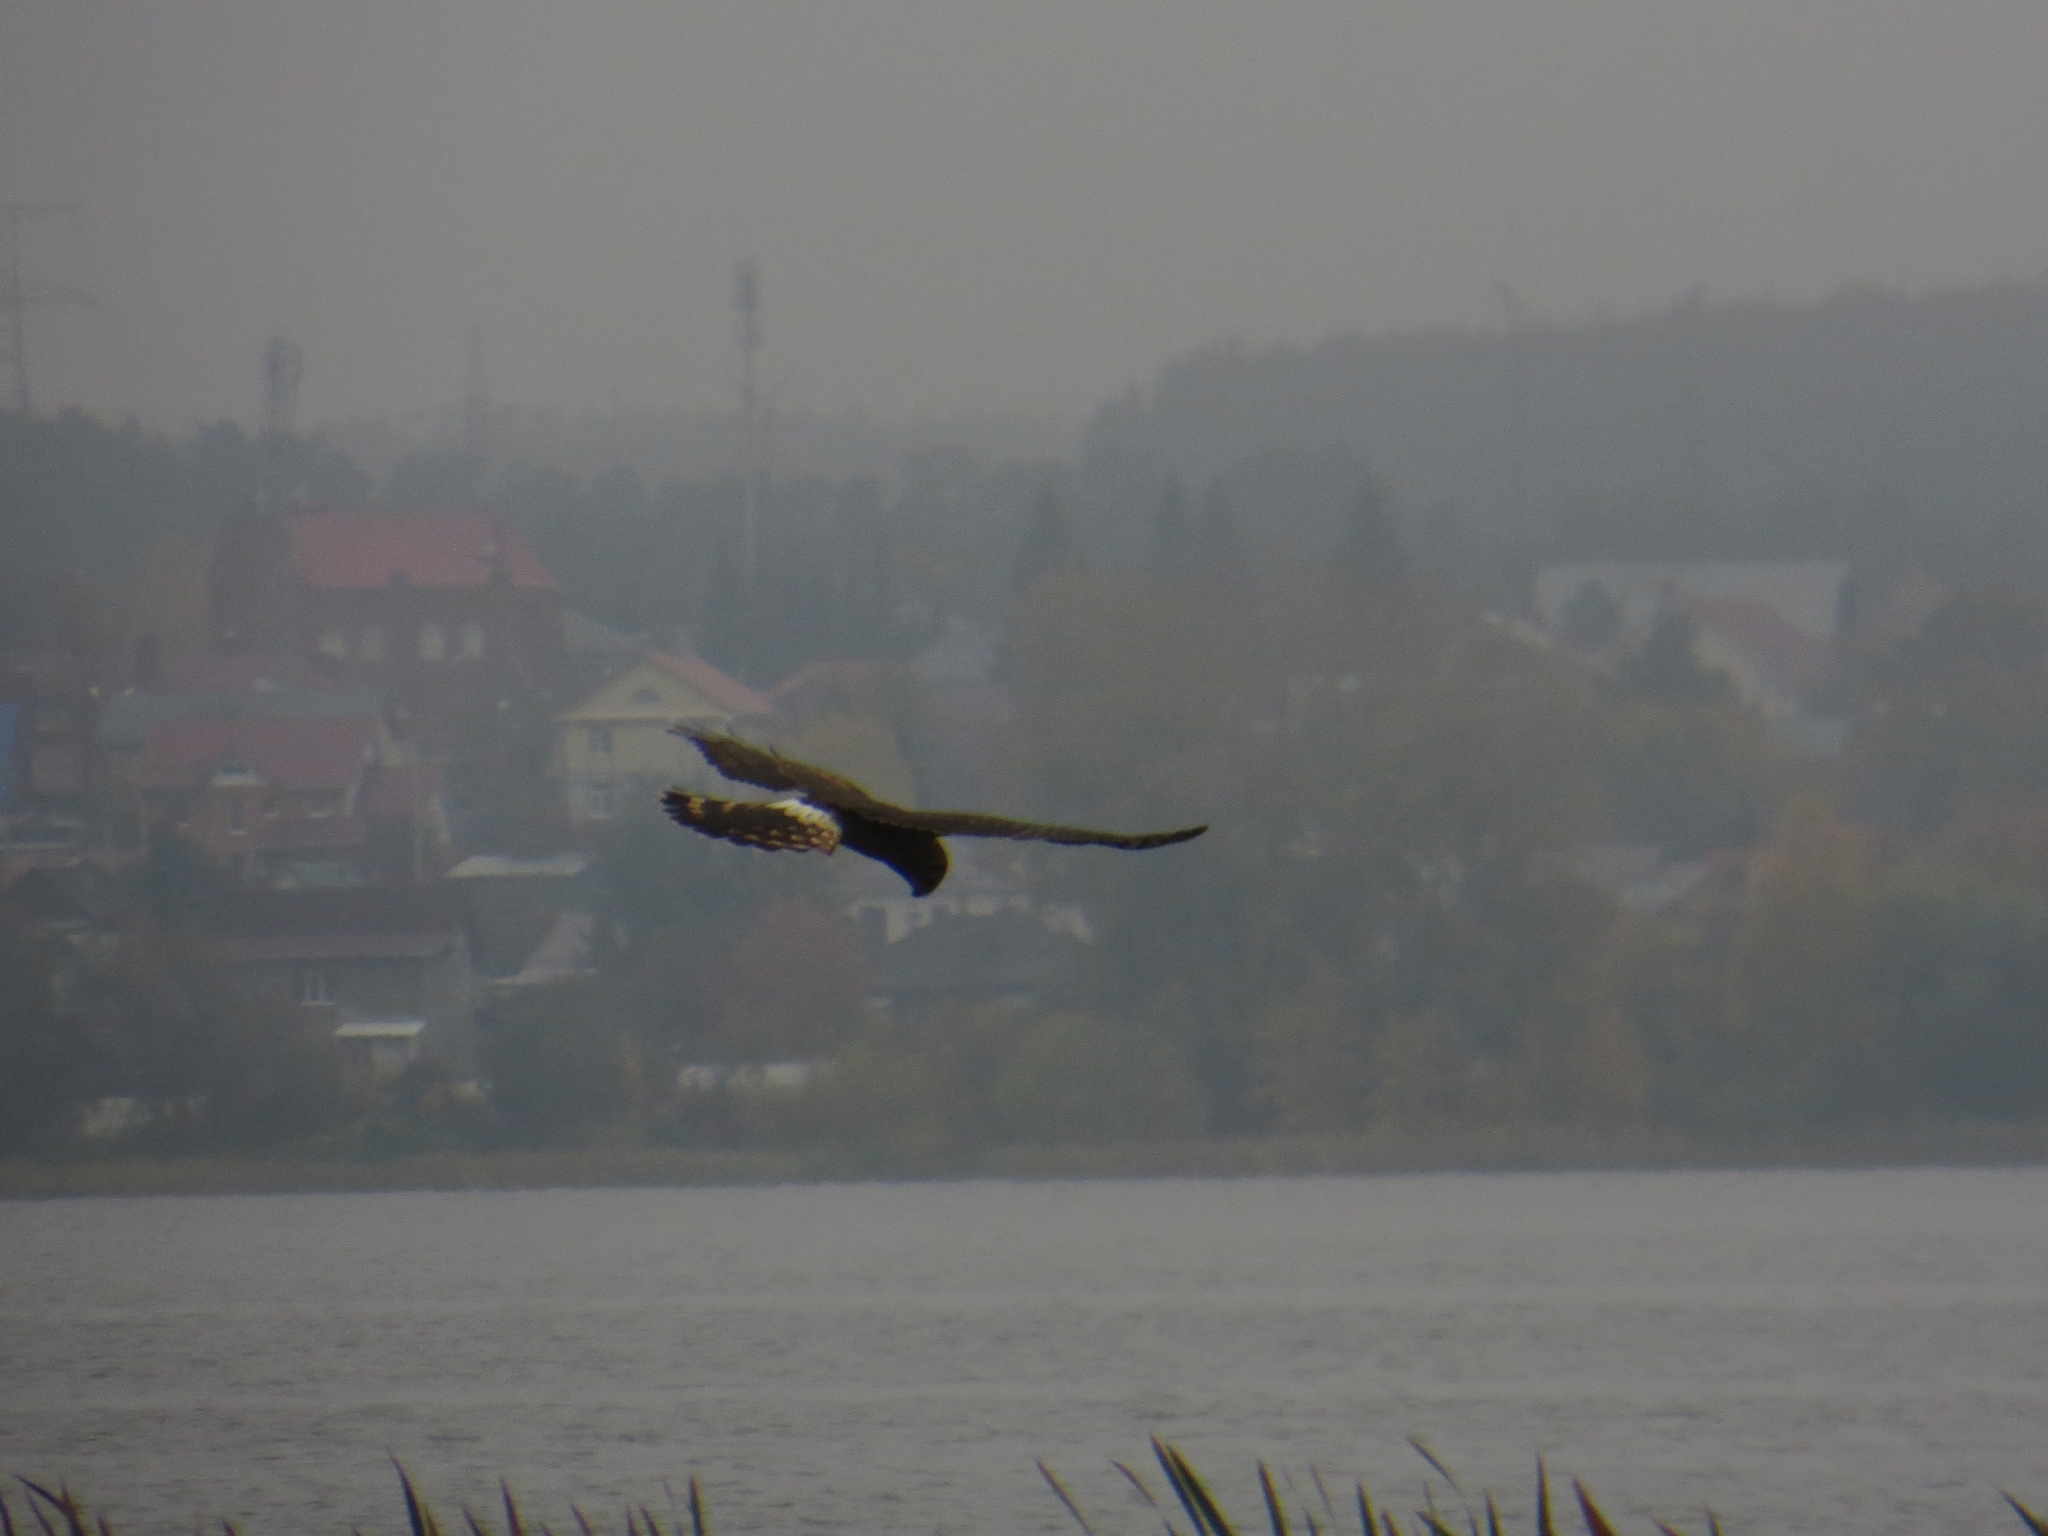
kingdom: Animalia
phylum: Chordata
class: Aves
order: Accipitriformes
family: Accipitridae
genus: Circus
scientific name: Circus cyaneus
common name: Hen harrier
